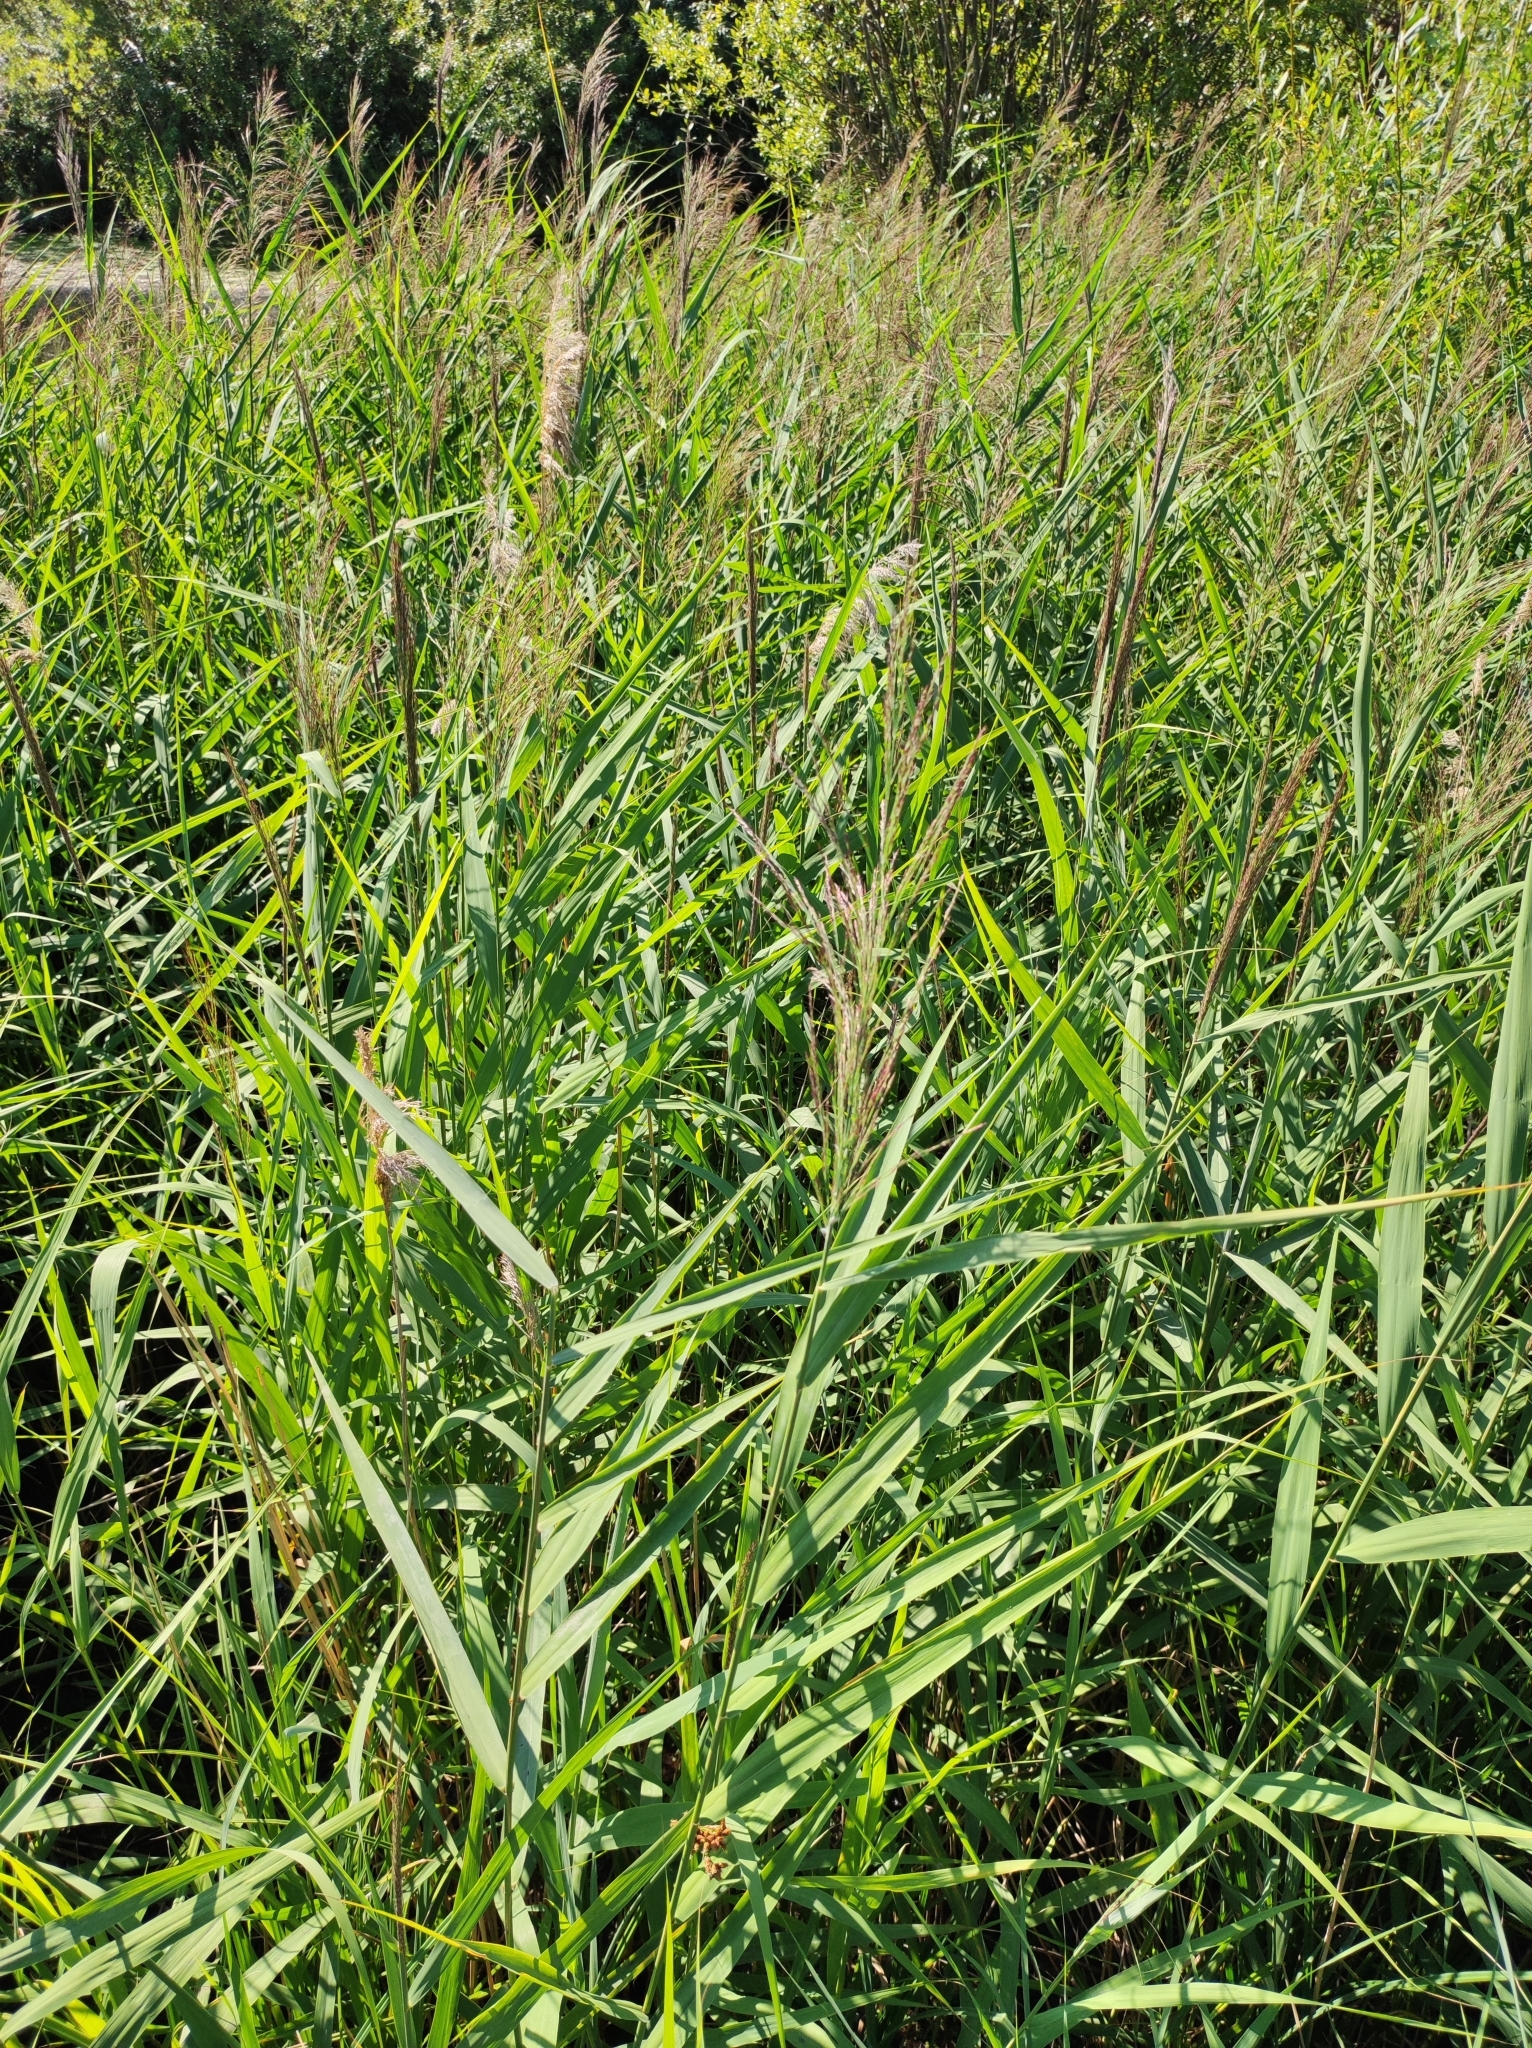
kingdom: Plantae
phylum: Tracheophyta
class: Liliopsida
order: Poales
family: Poaceae
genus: Phragmites
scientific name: Phragmites australis
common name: Common reed
